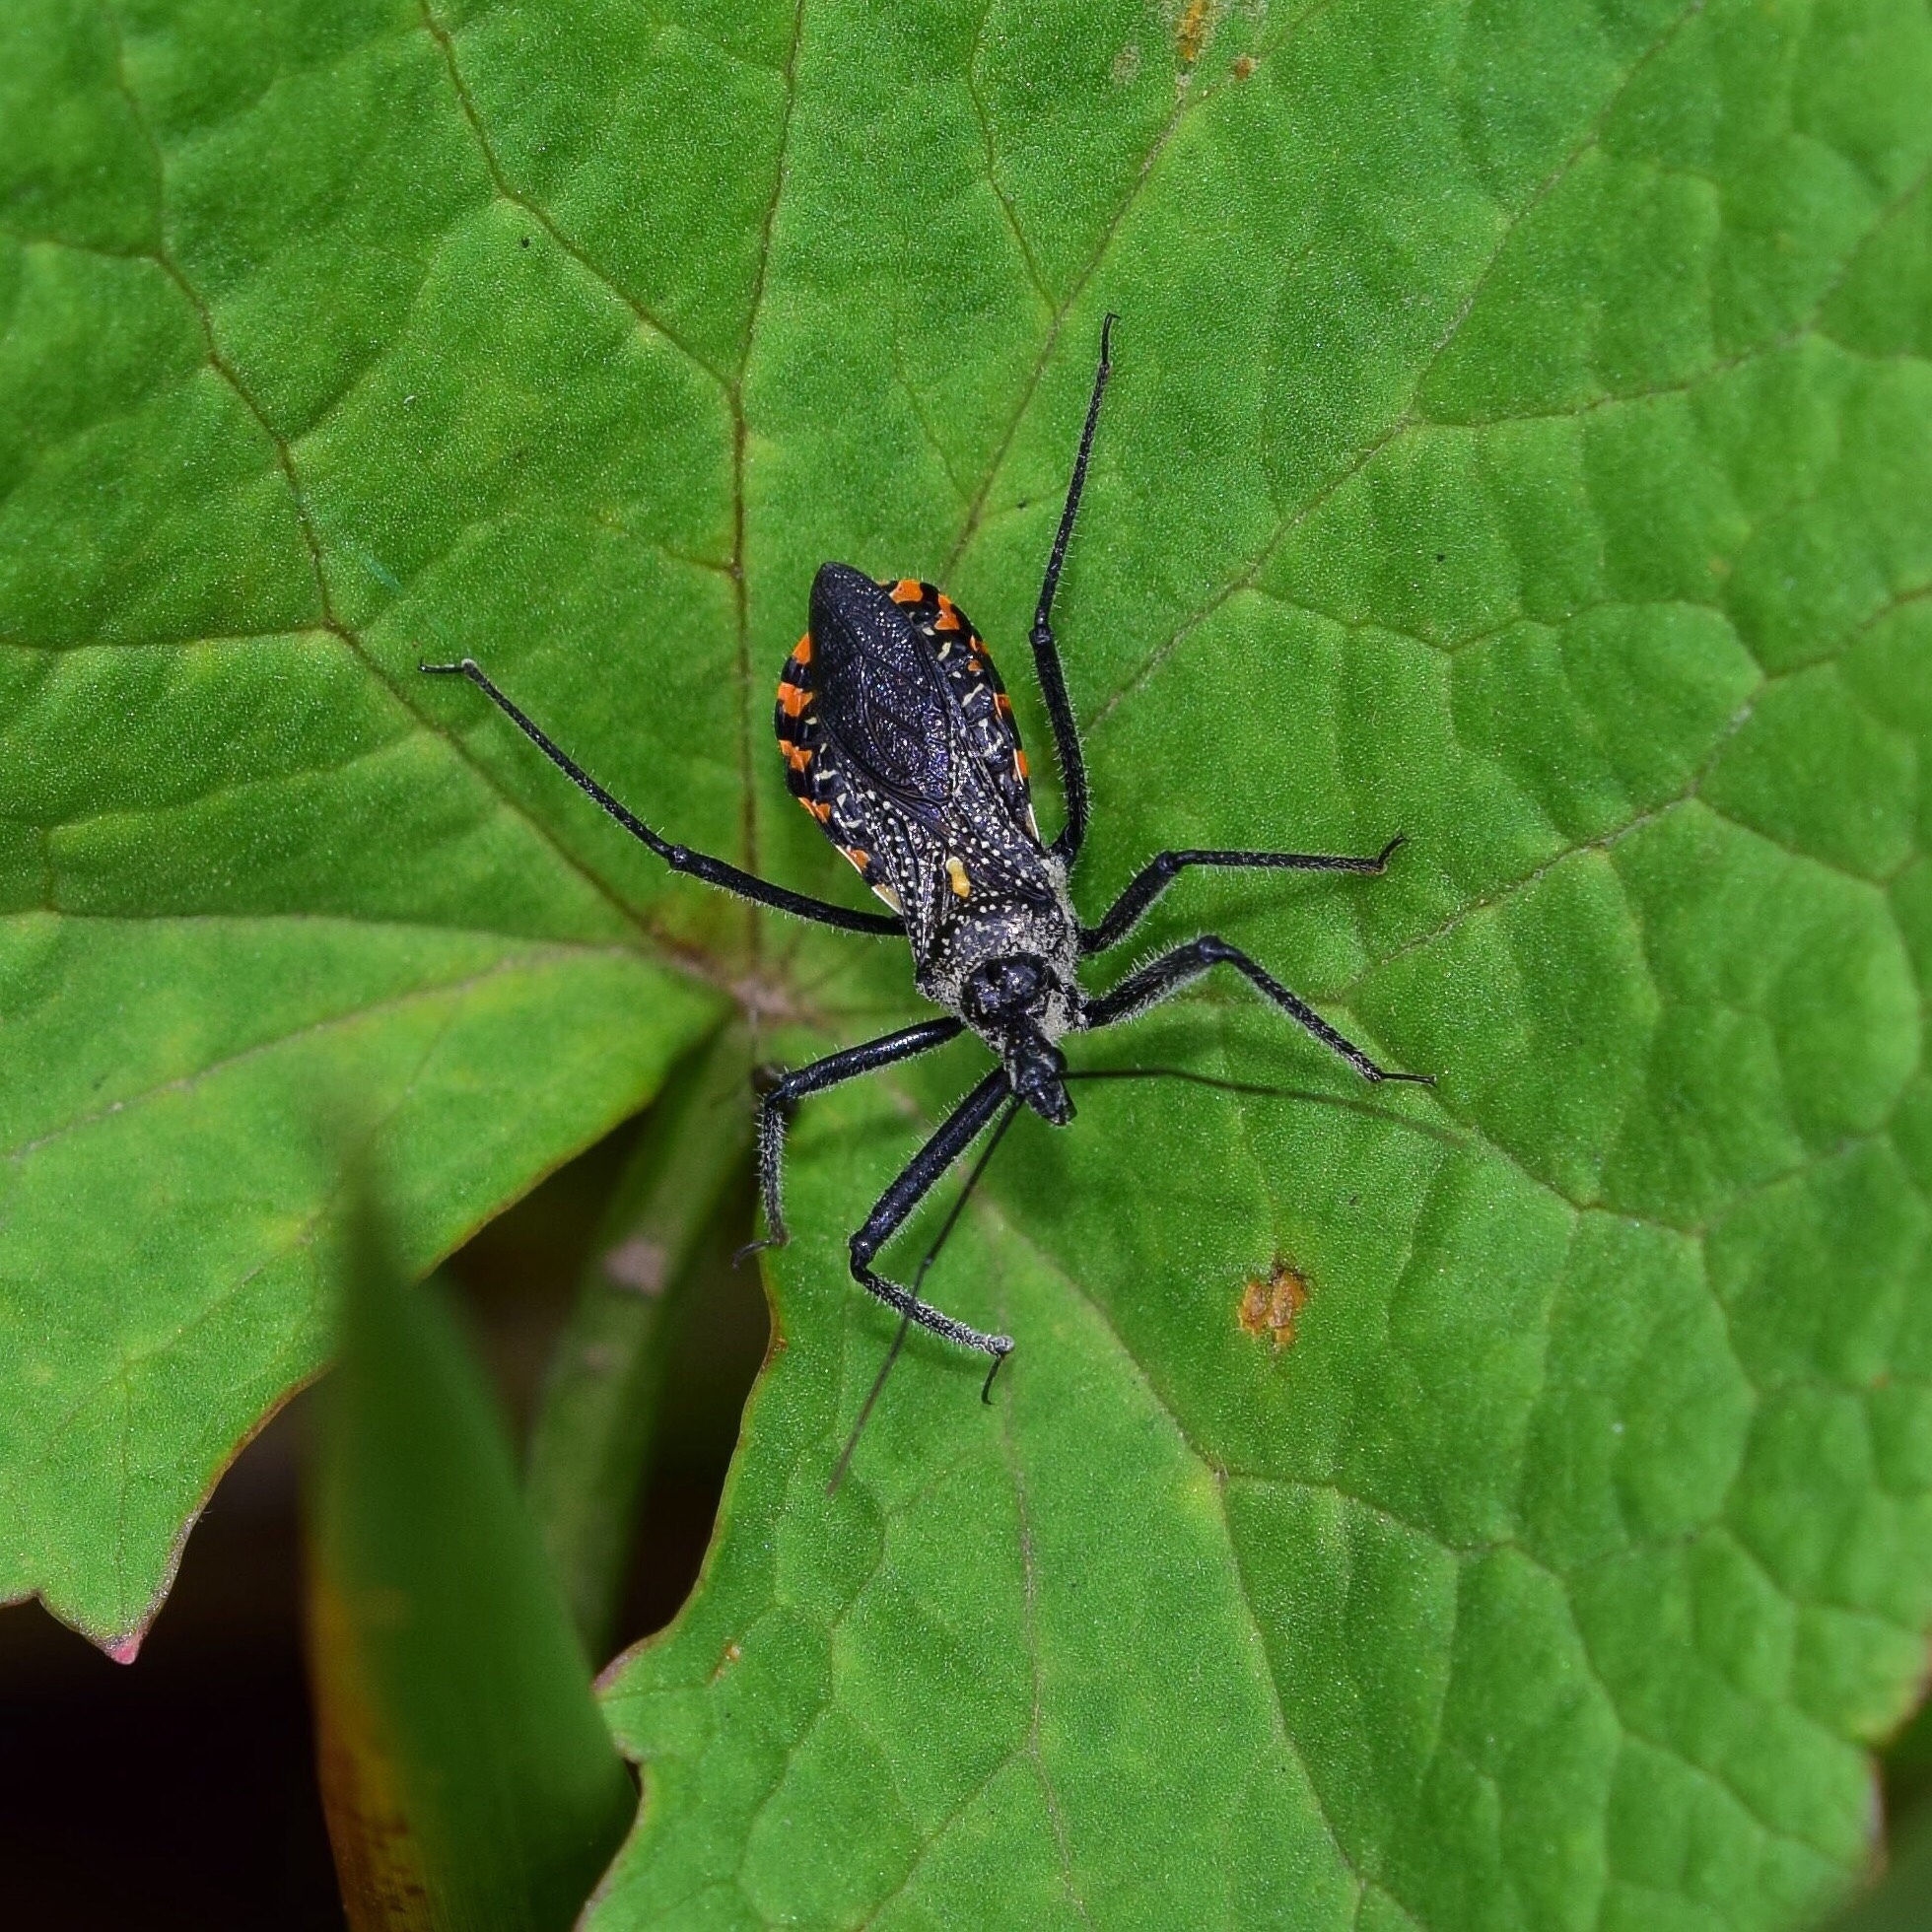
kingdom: Animalia
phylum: Arthropoda
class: Insecta
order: Hemiptera
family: Reduviidae
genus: Rhynocoris
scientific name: Rhynocoris tristis
